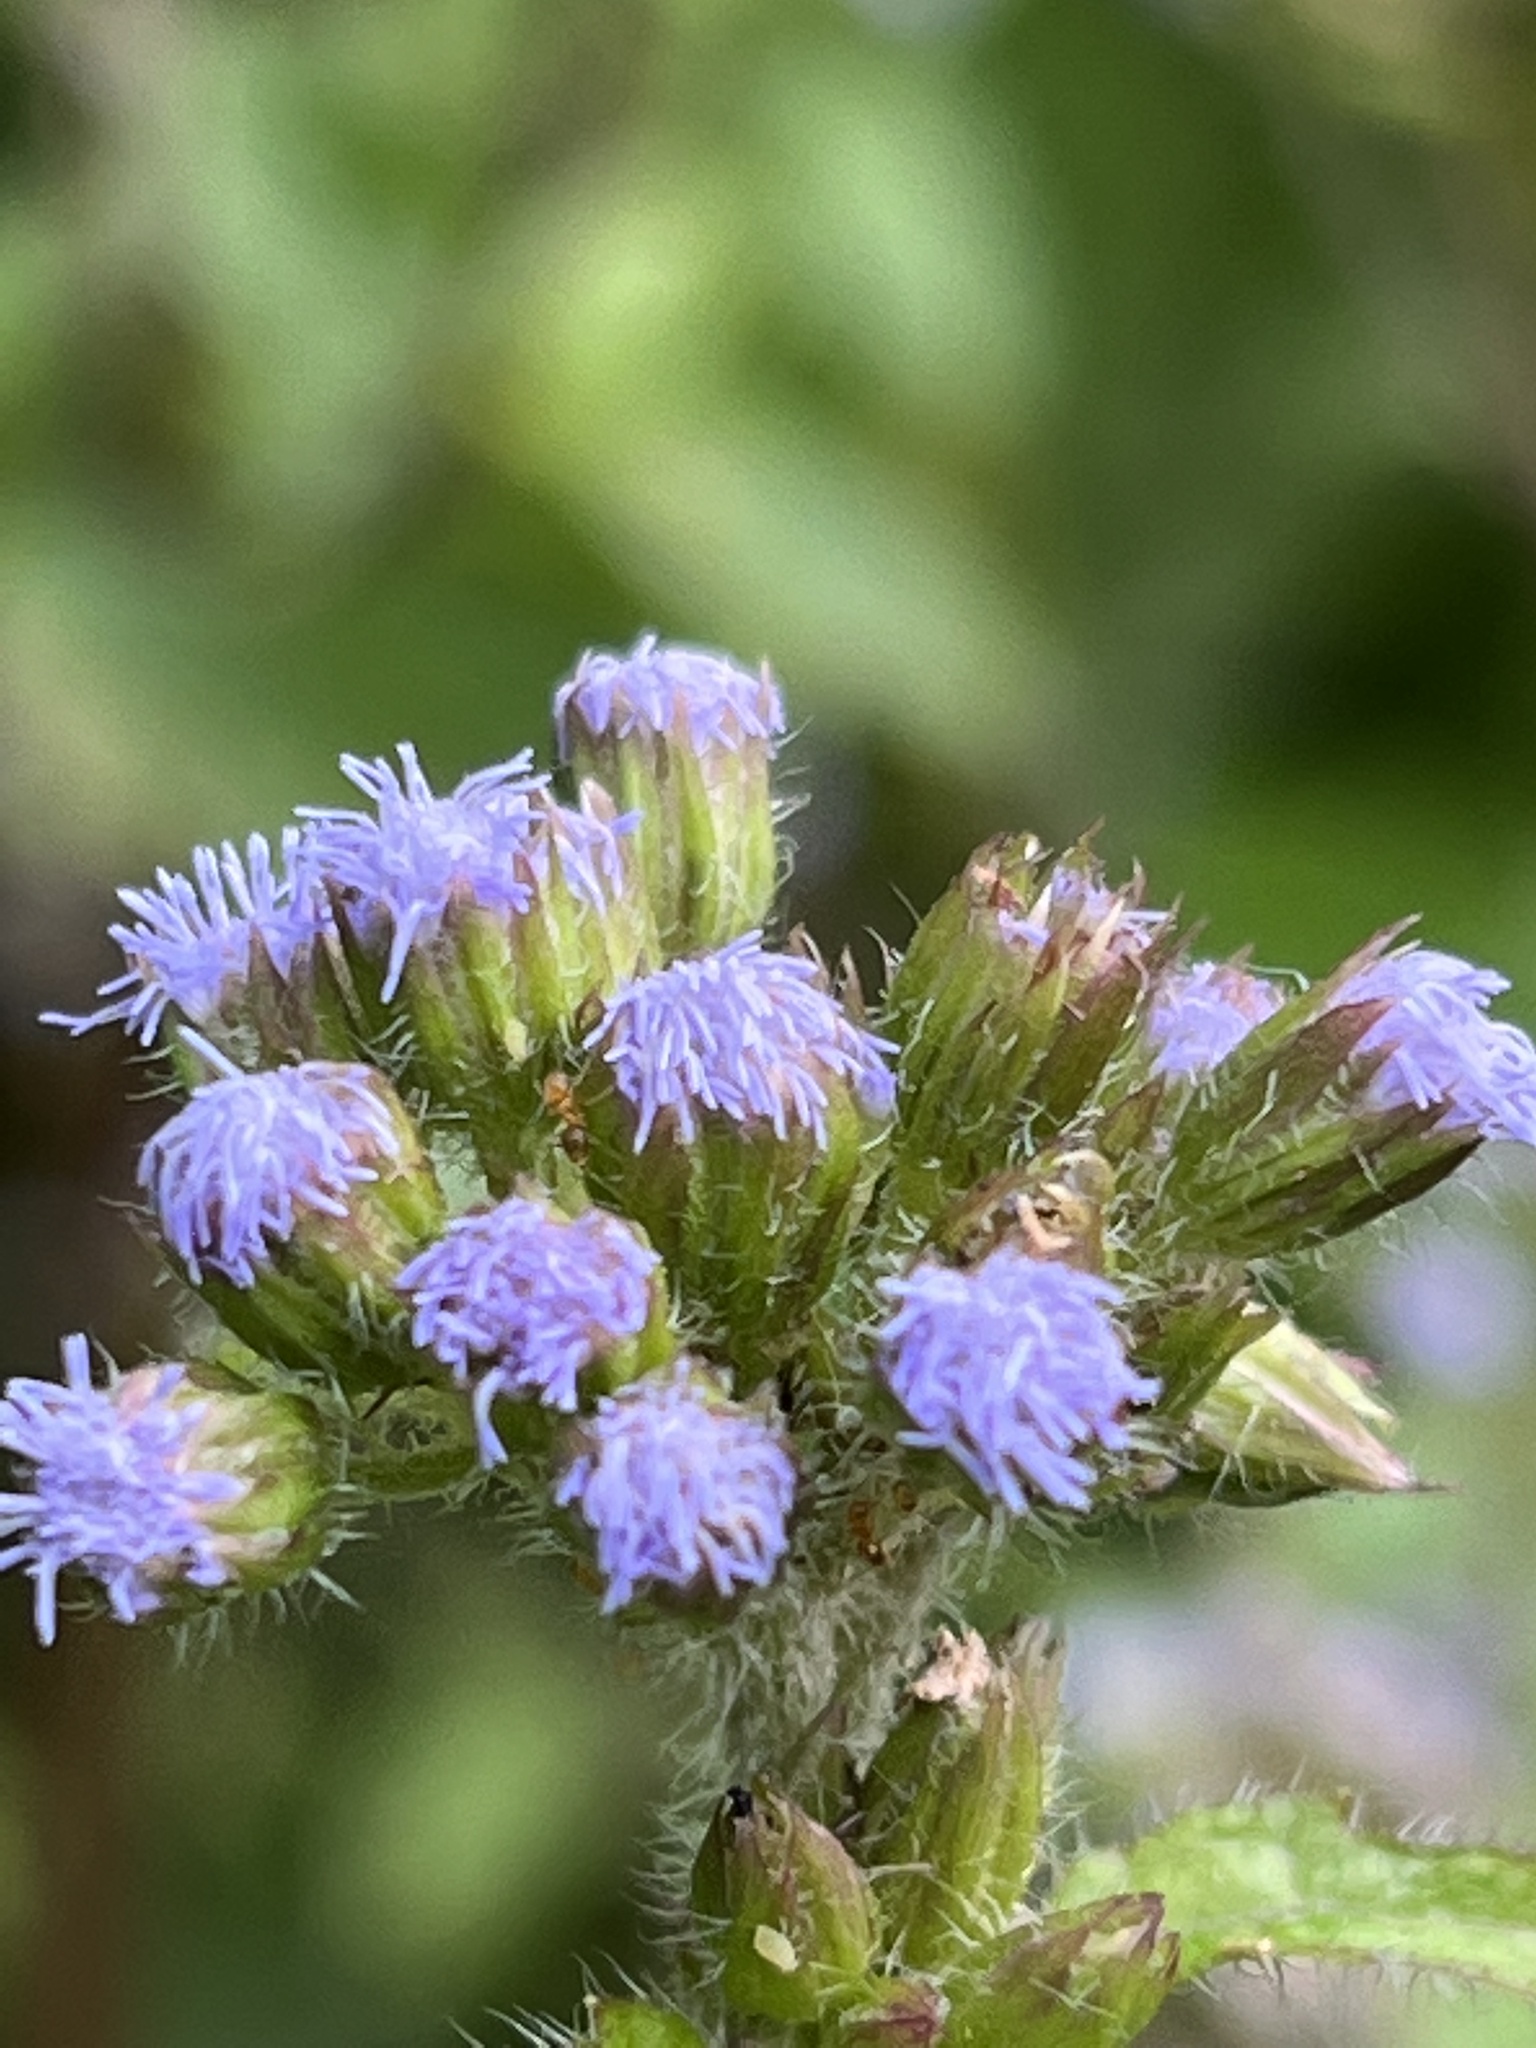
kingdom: Plantae
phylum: Tracheophyta
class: Magnoliopsida
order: Asterales
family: Asteraceae
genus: Ageratum
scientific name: Ageratum conyzoides
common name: Tropical whiteweed
